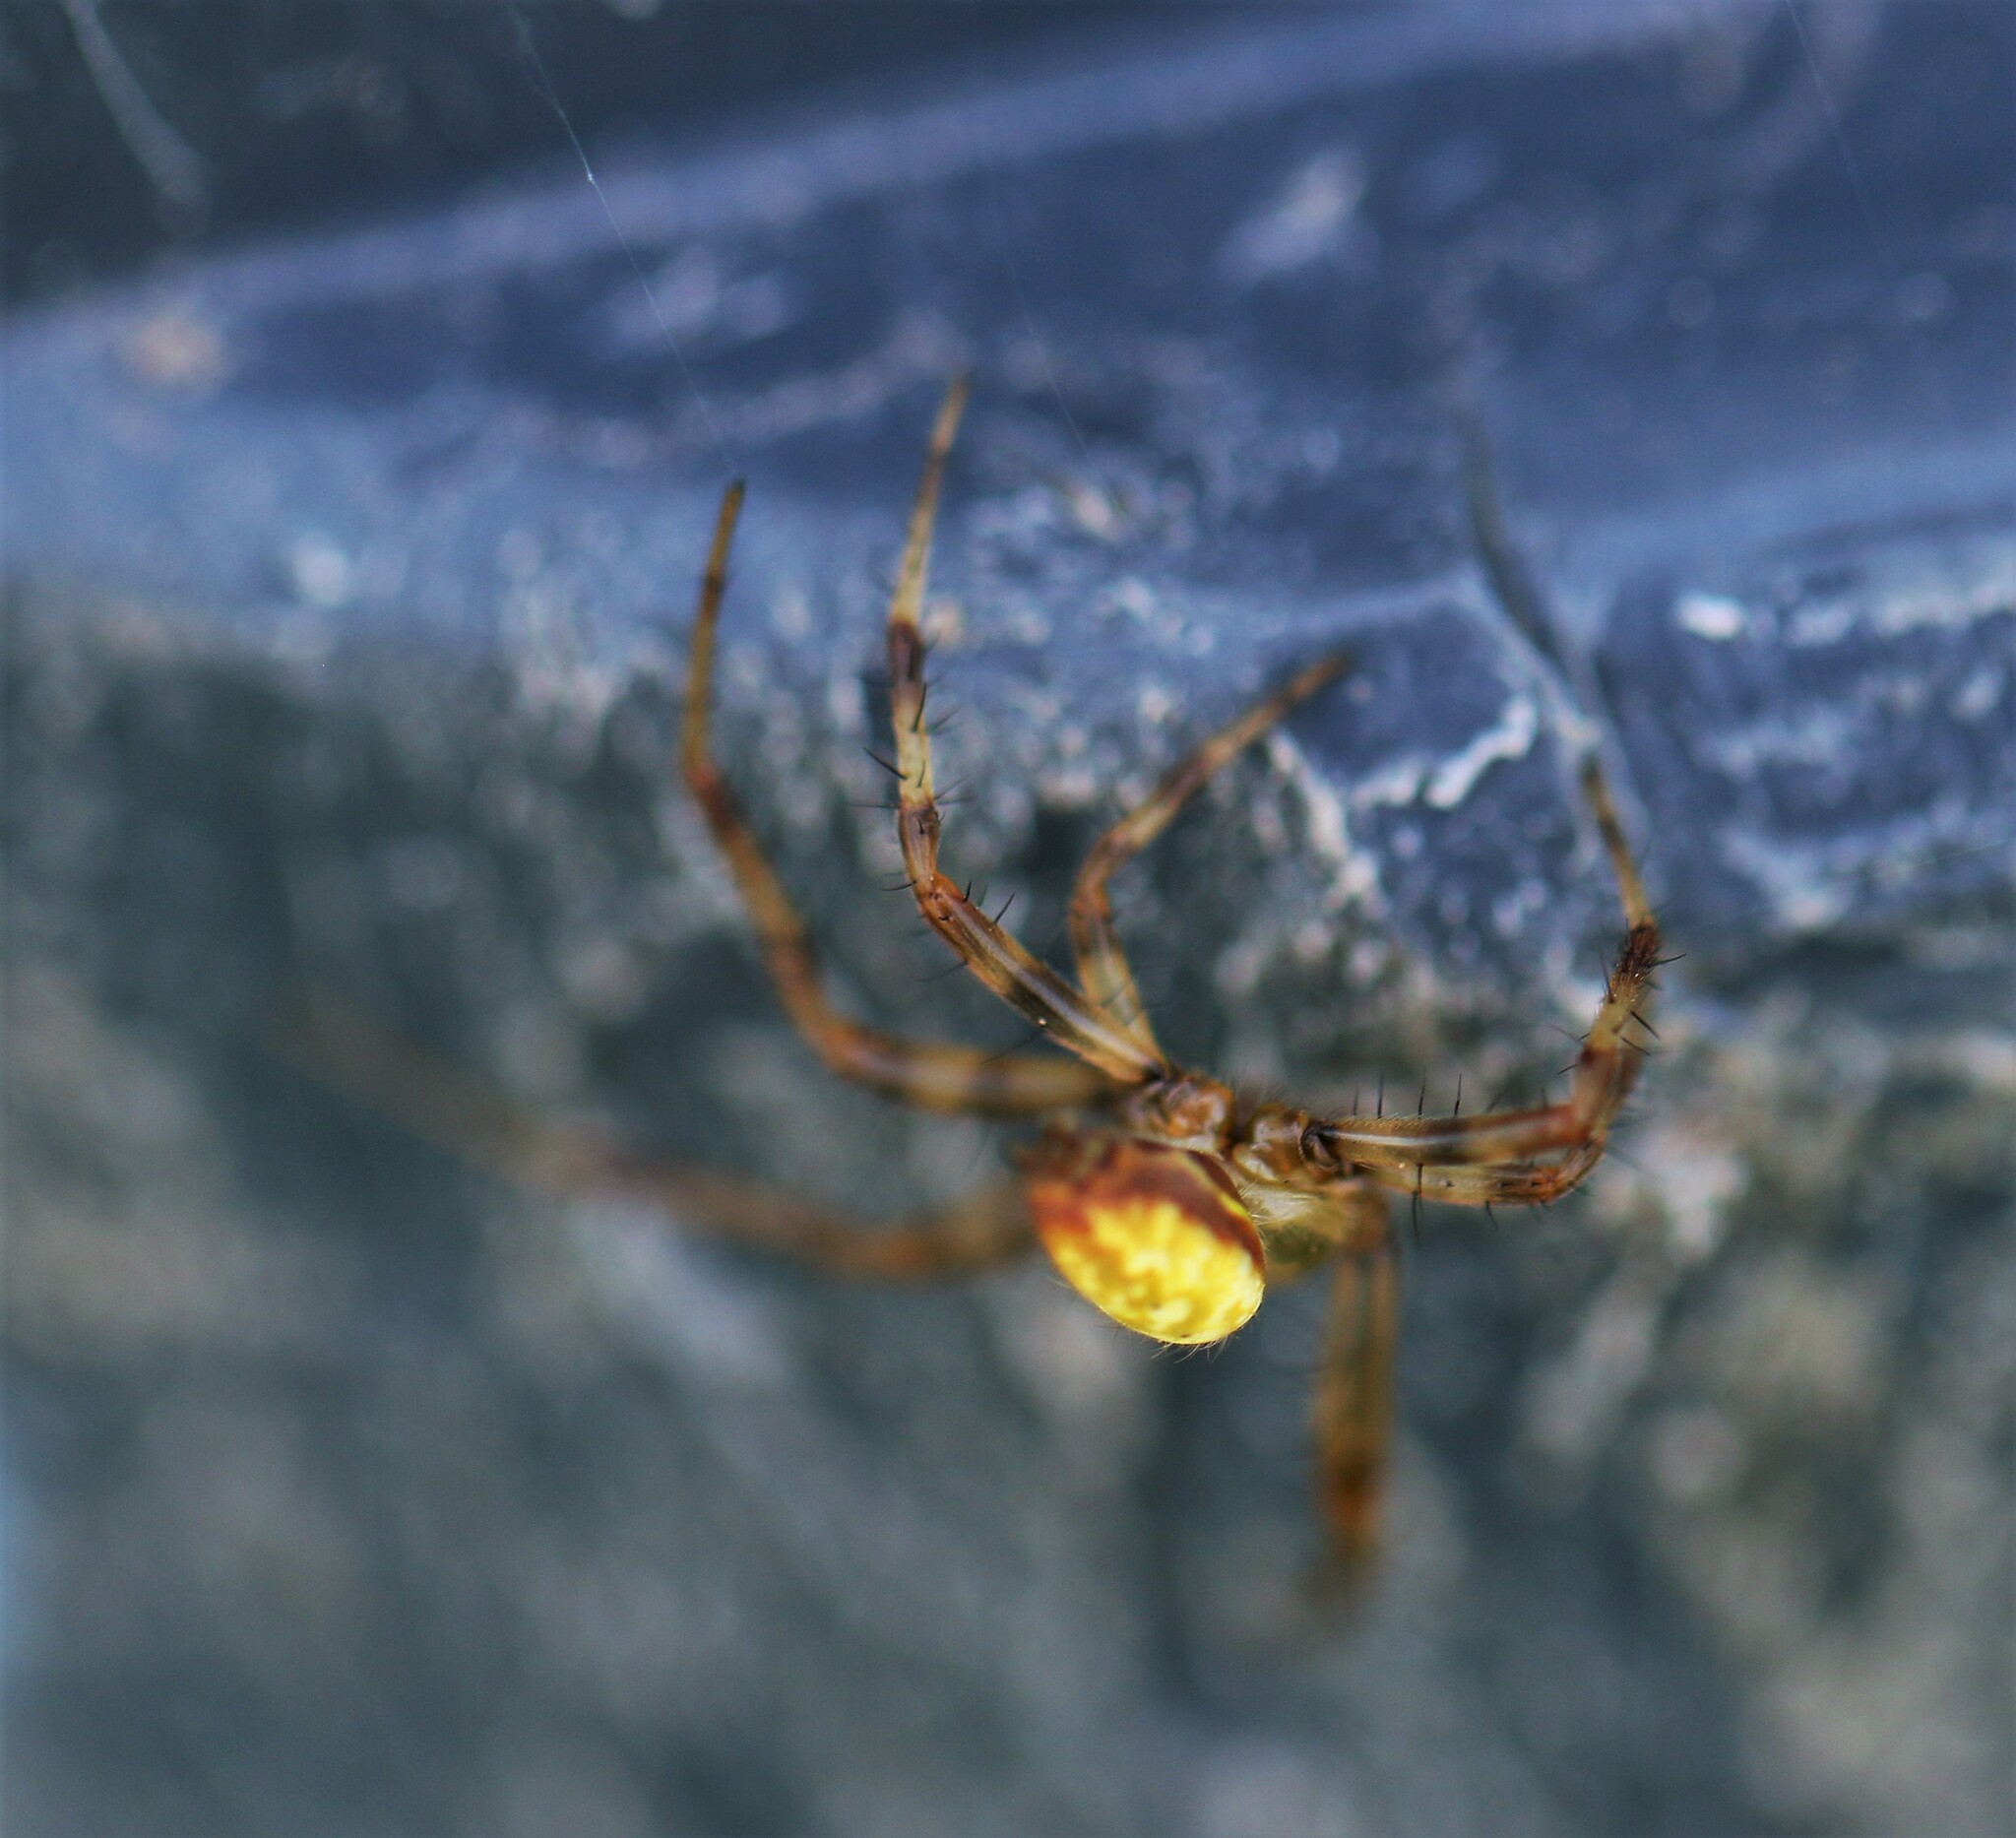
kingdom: Animalia
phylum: Arthropoda
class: Arachnida
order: Araneae
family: Araneidae
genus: Araneus
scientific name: Araneus trifolium
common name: Shamrock orbweaver
